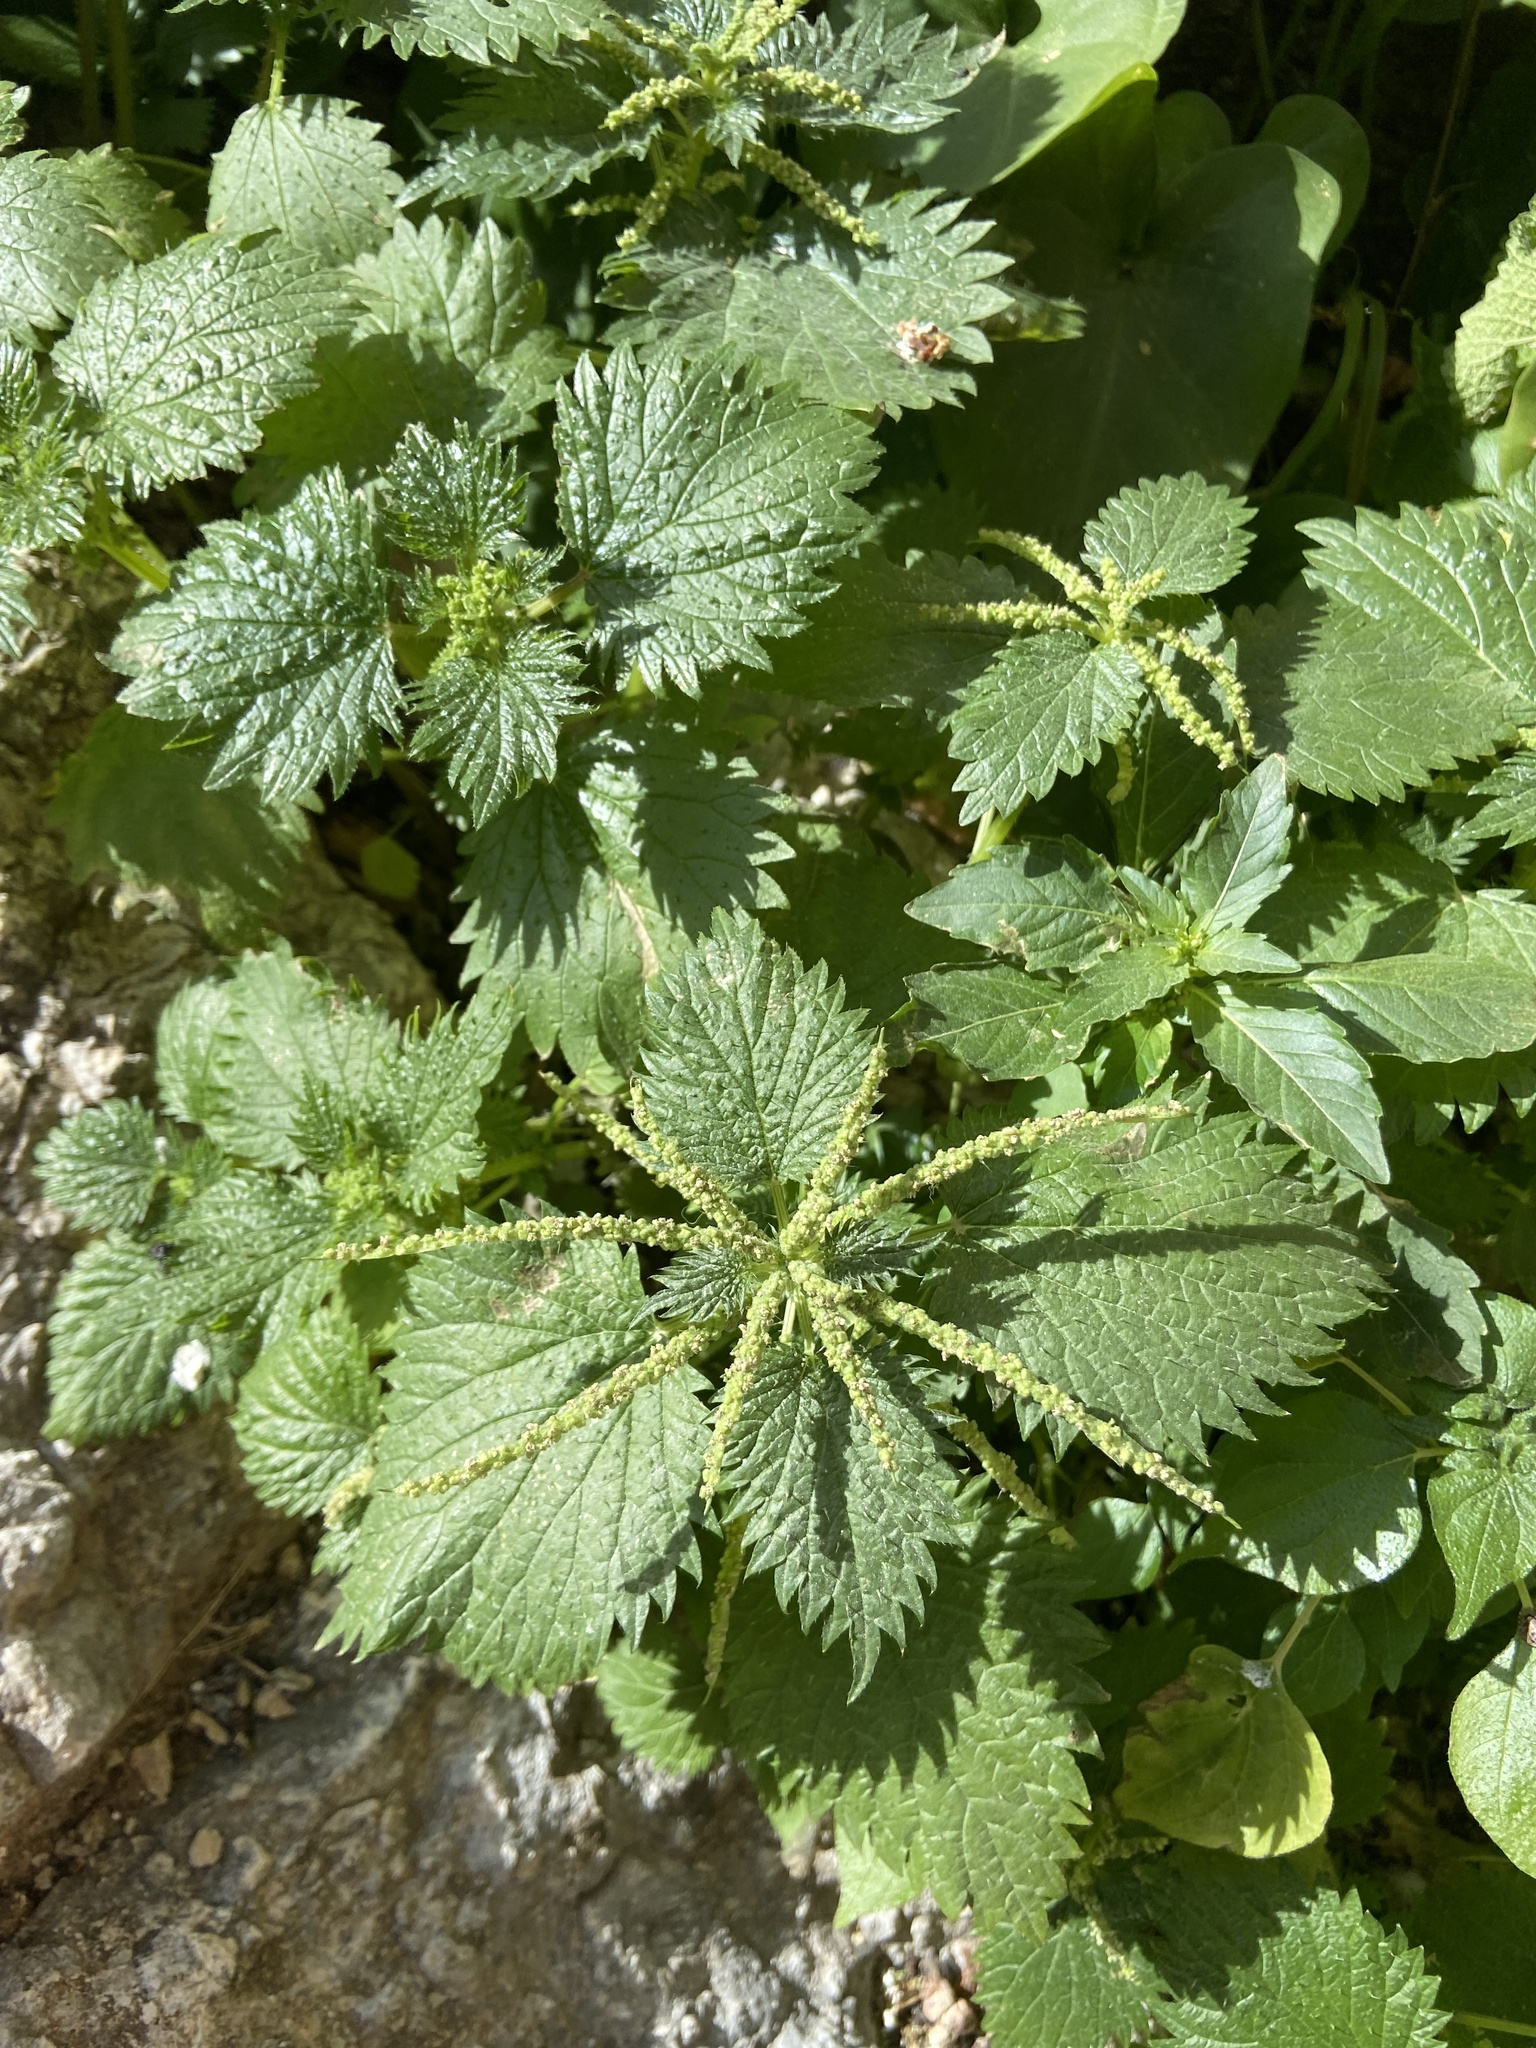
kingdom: Plantae
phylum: Tracheophyta
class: Magnoliopsida
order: Rosales
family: Urticaceae
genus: Urtica
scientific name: Urtica membranacea
